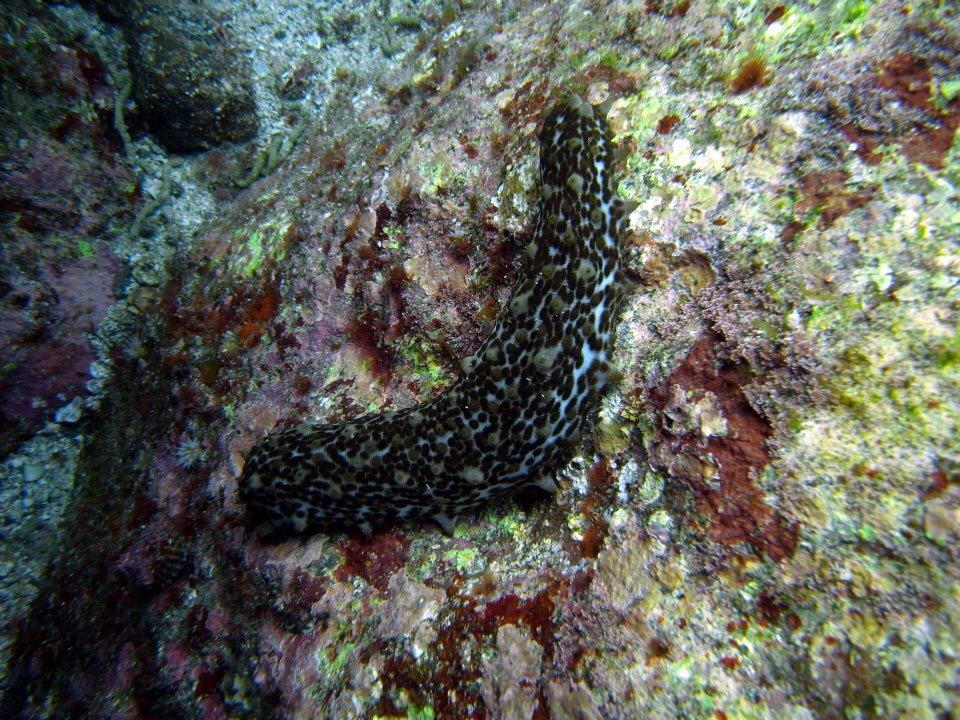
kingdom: Animalia
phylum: Echinodermata
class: Holothuroidea
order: Synallactida
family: Stichopodidae
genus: Australostichopus
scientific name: Australostichopus mollis
